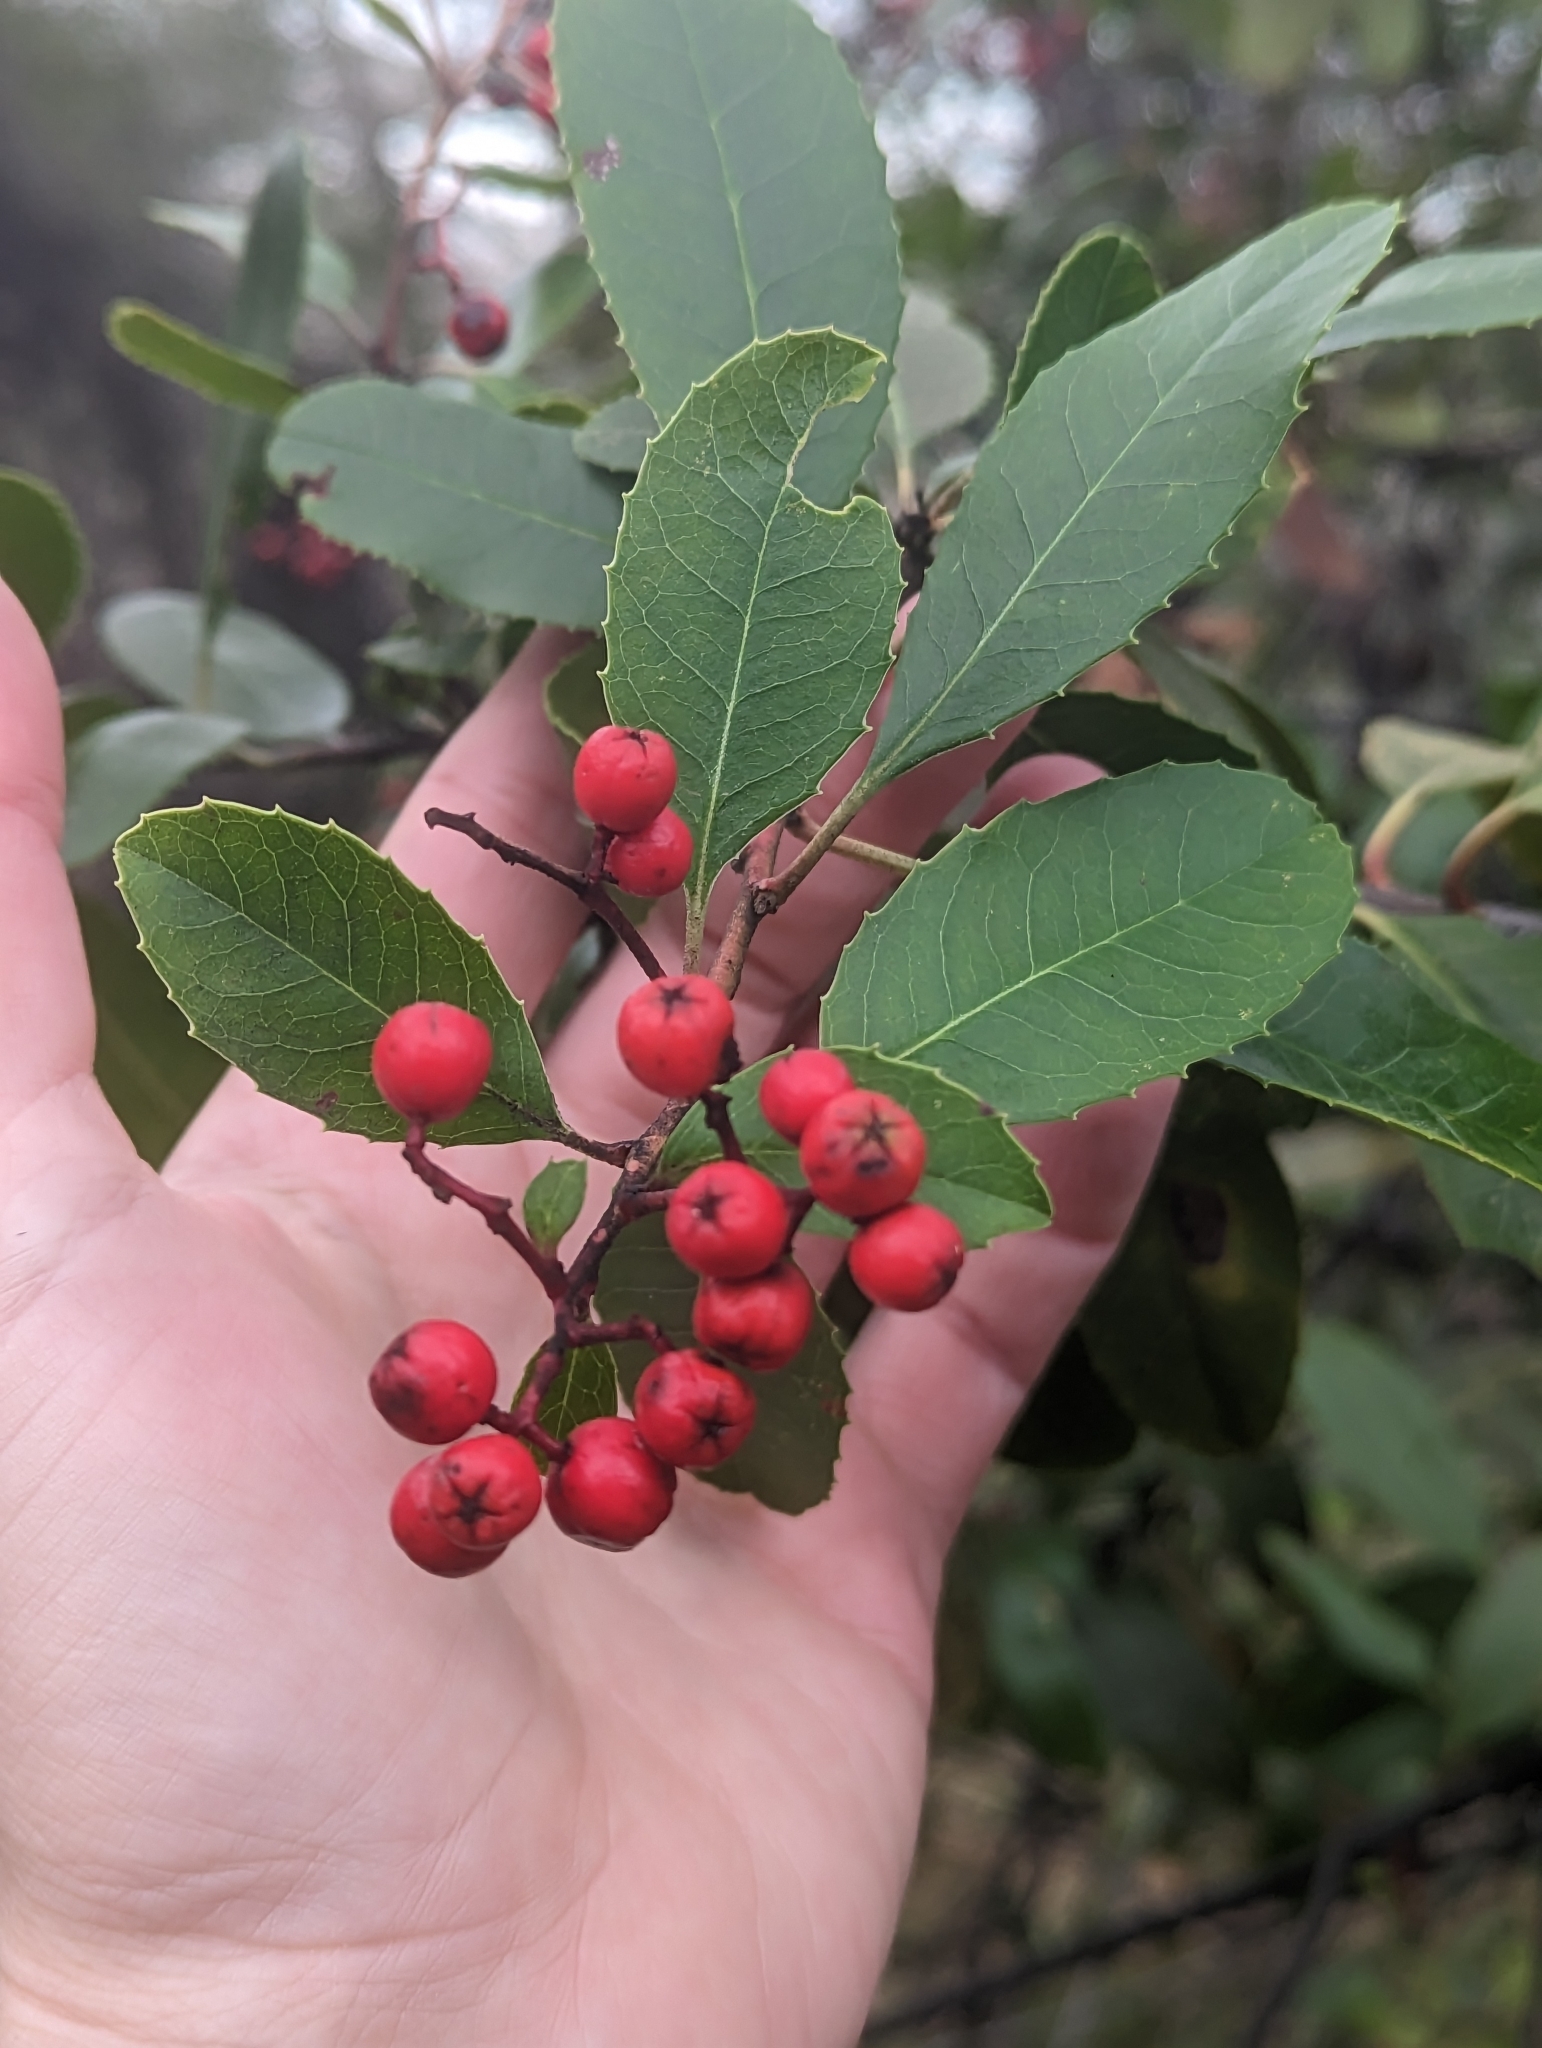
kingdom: Plantae
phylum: Tracheophyta
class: Magnoliopsida
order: Rosales
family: Rosaceae
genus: Heteromeles
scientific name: Heteromeles arbutifolia
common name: California-holly
